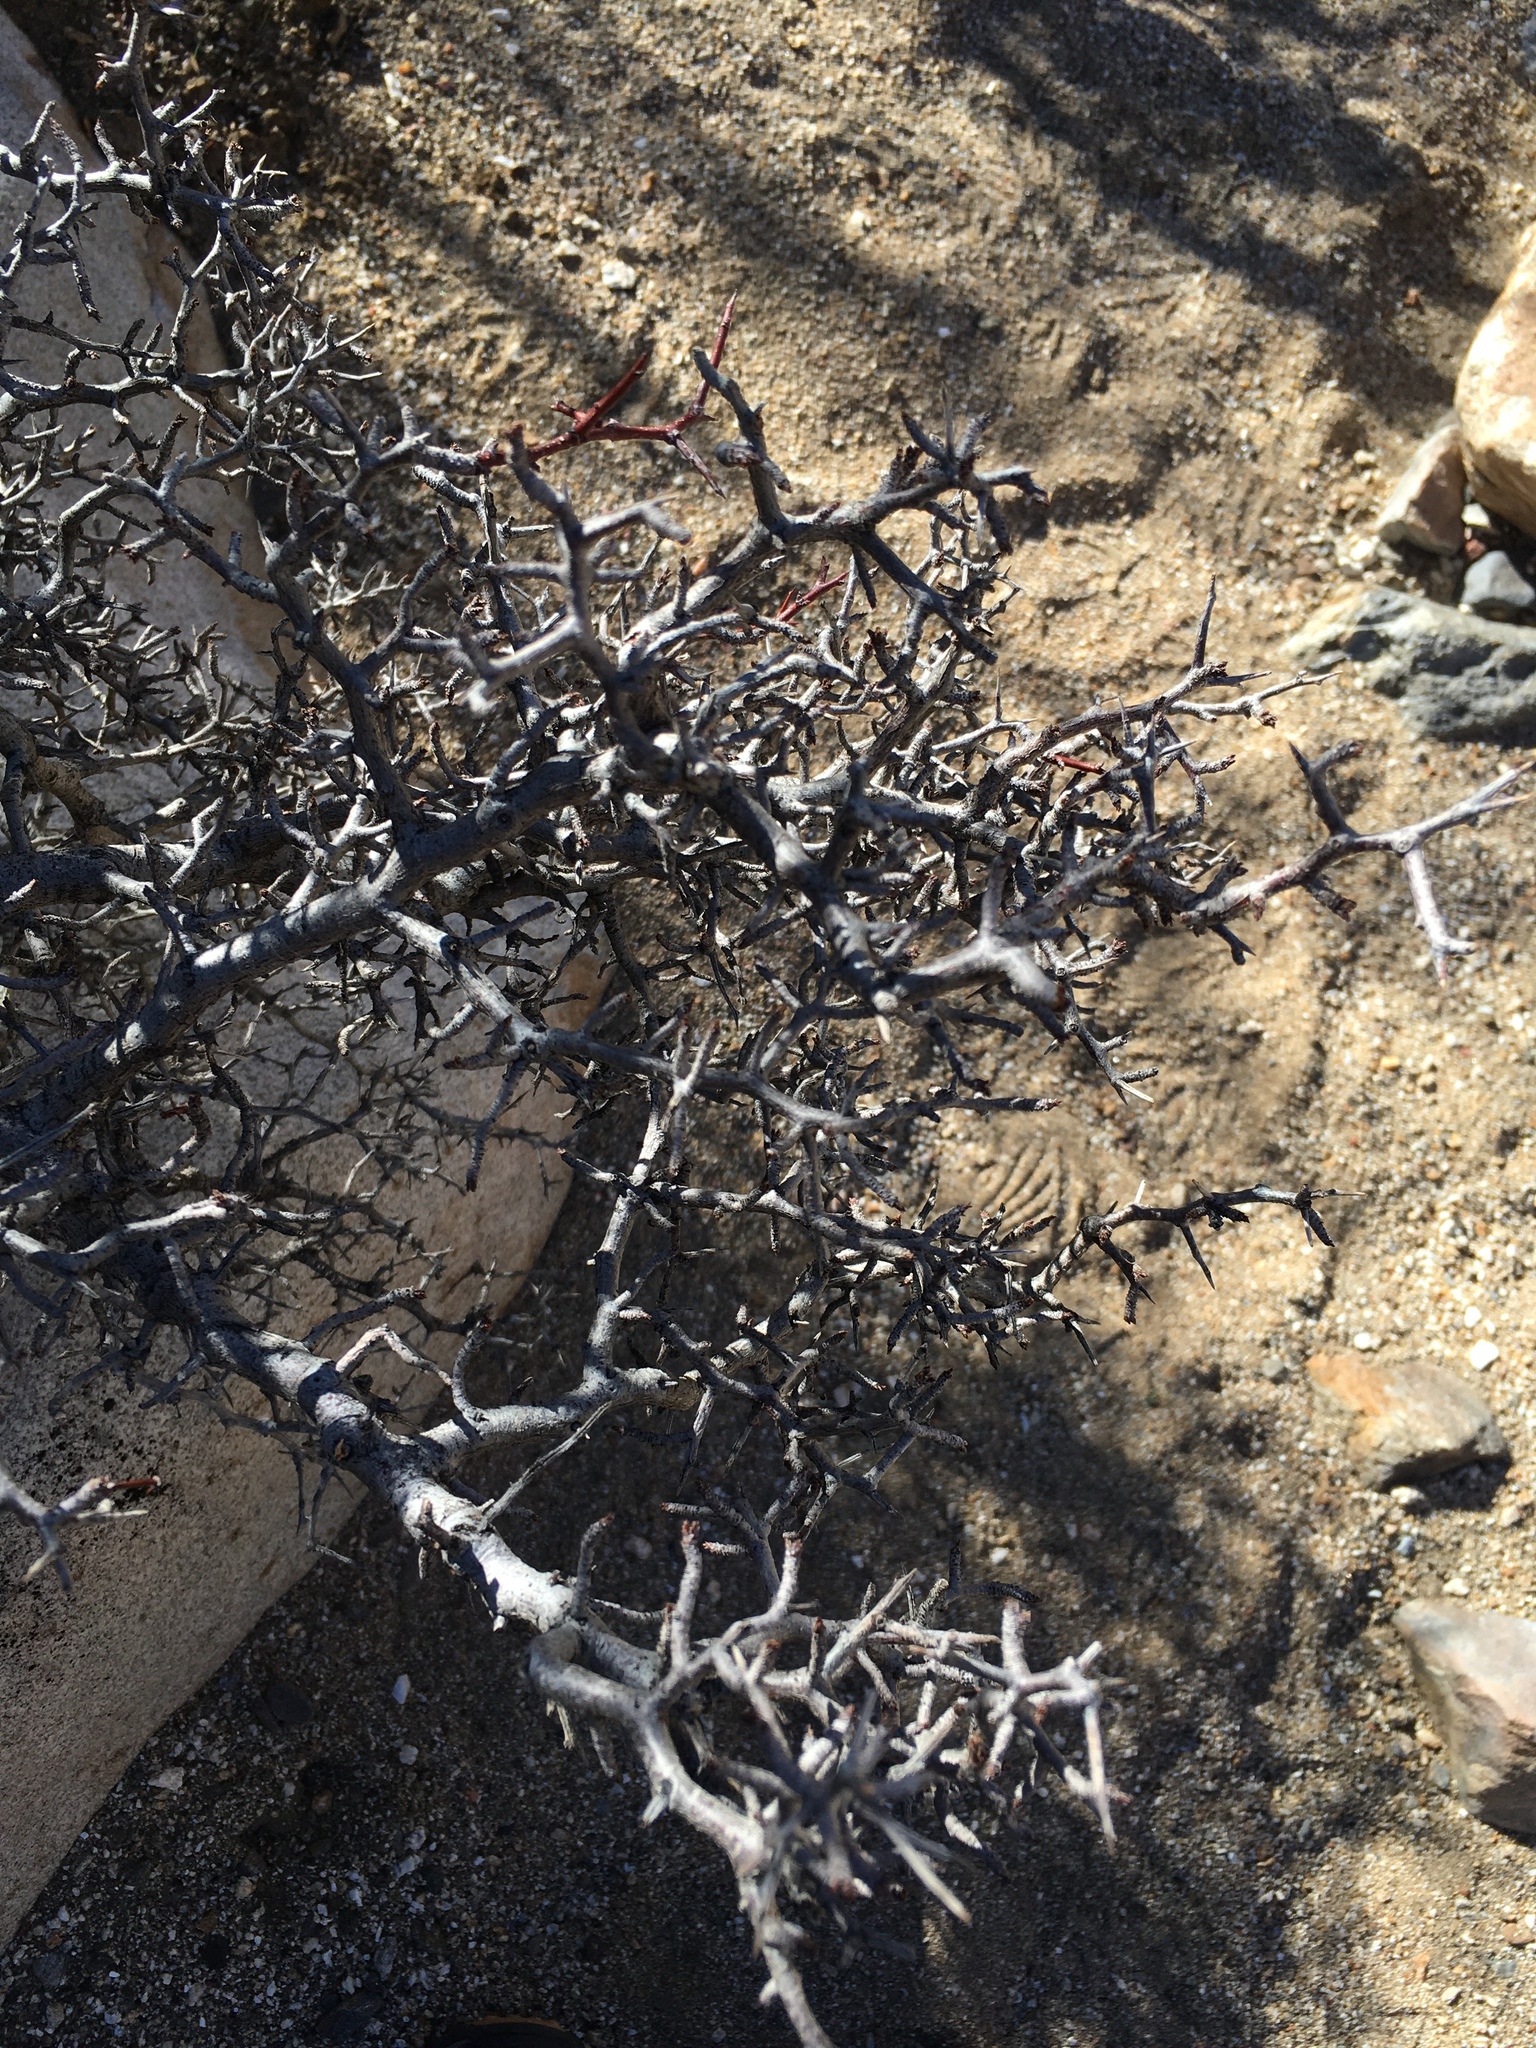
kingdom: Plantae
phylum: Tracheophyta
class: Magnoliopsida
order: Rosales
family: Rosaceae
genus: Prunus
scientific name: Prunus fremontii
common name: Desert apricot
